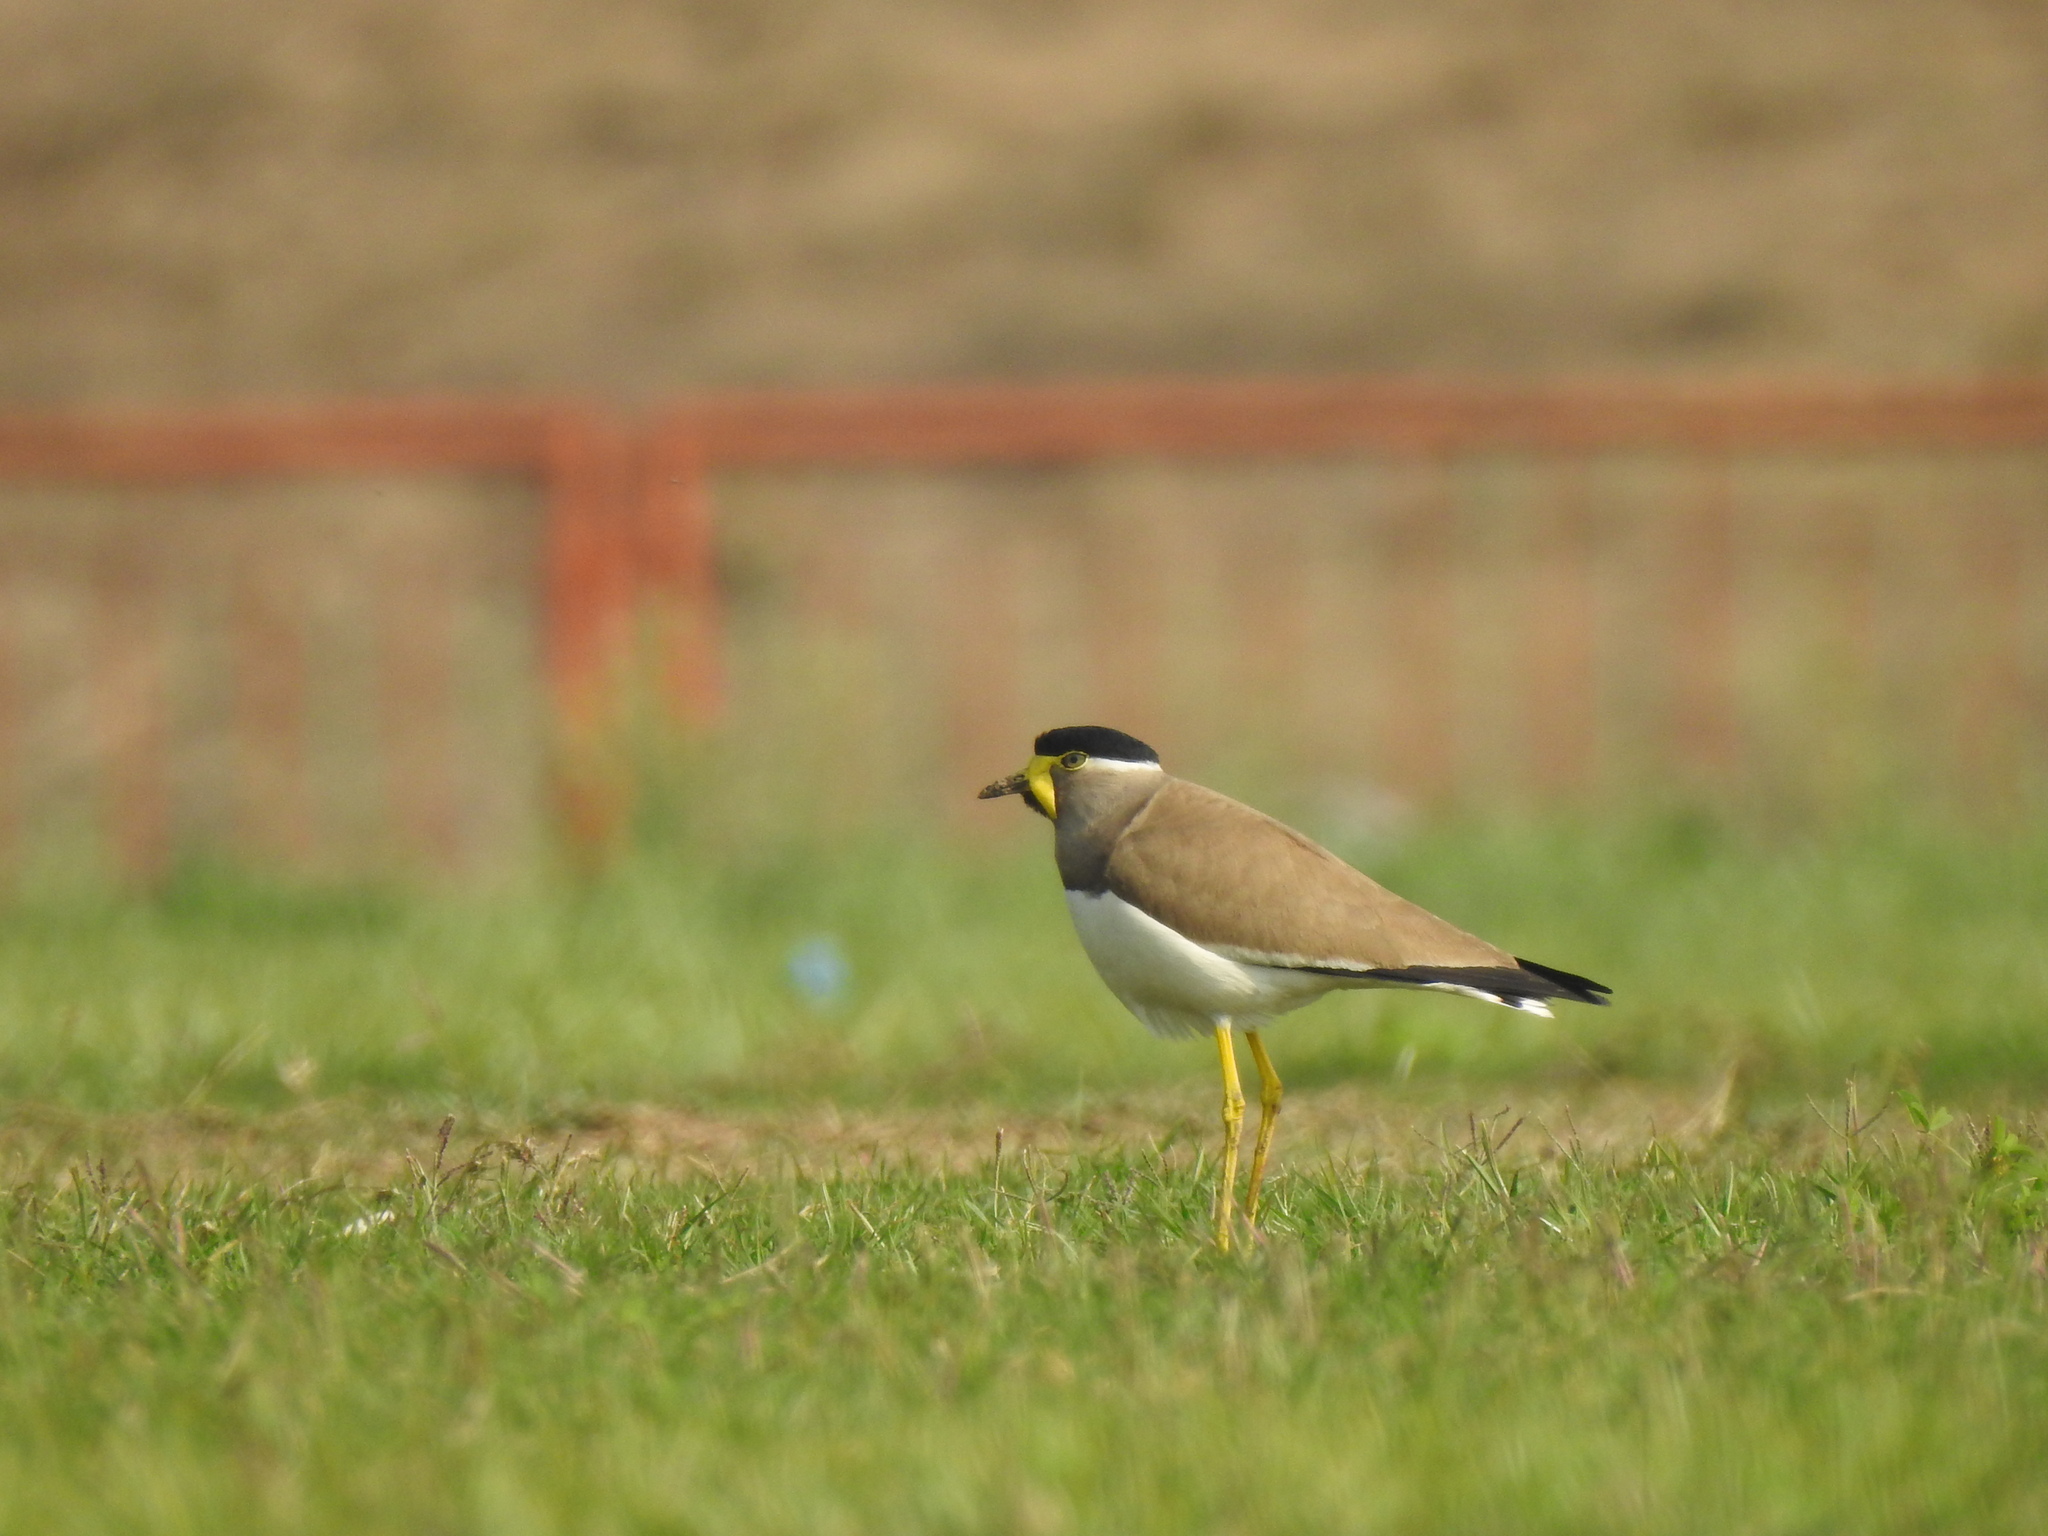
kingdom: Animalia
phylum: Chordata
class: Aves
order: Charadriiformes
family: Charadriidae
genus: Vanellus
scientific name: Vanellus malabaricus
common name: Yellow-wattled lapwing
